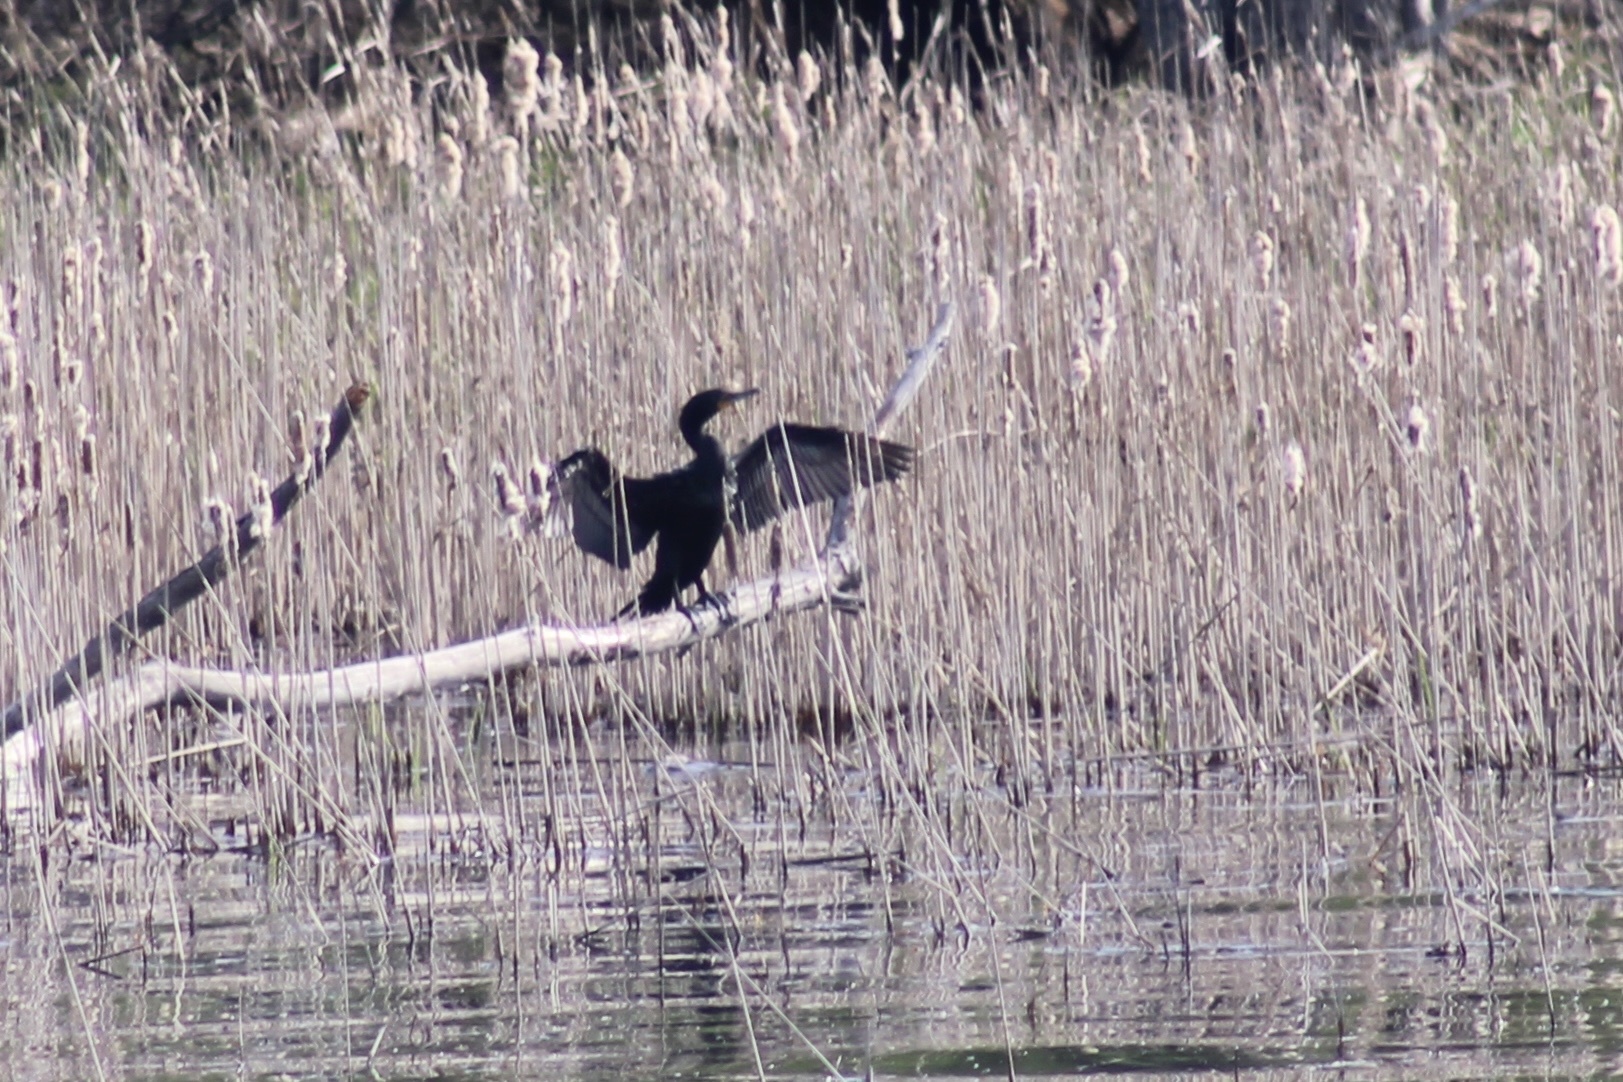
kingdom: Animalia
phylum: Chordata
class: Aves
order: Suliformes
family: Phalacrocoracidae
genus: Phalacrocorax
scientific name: Phalacrocorax auritus
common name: Double-crested cormorant
